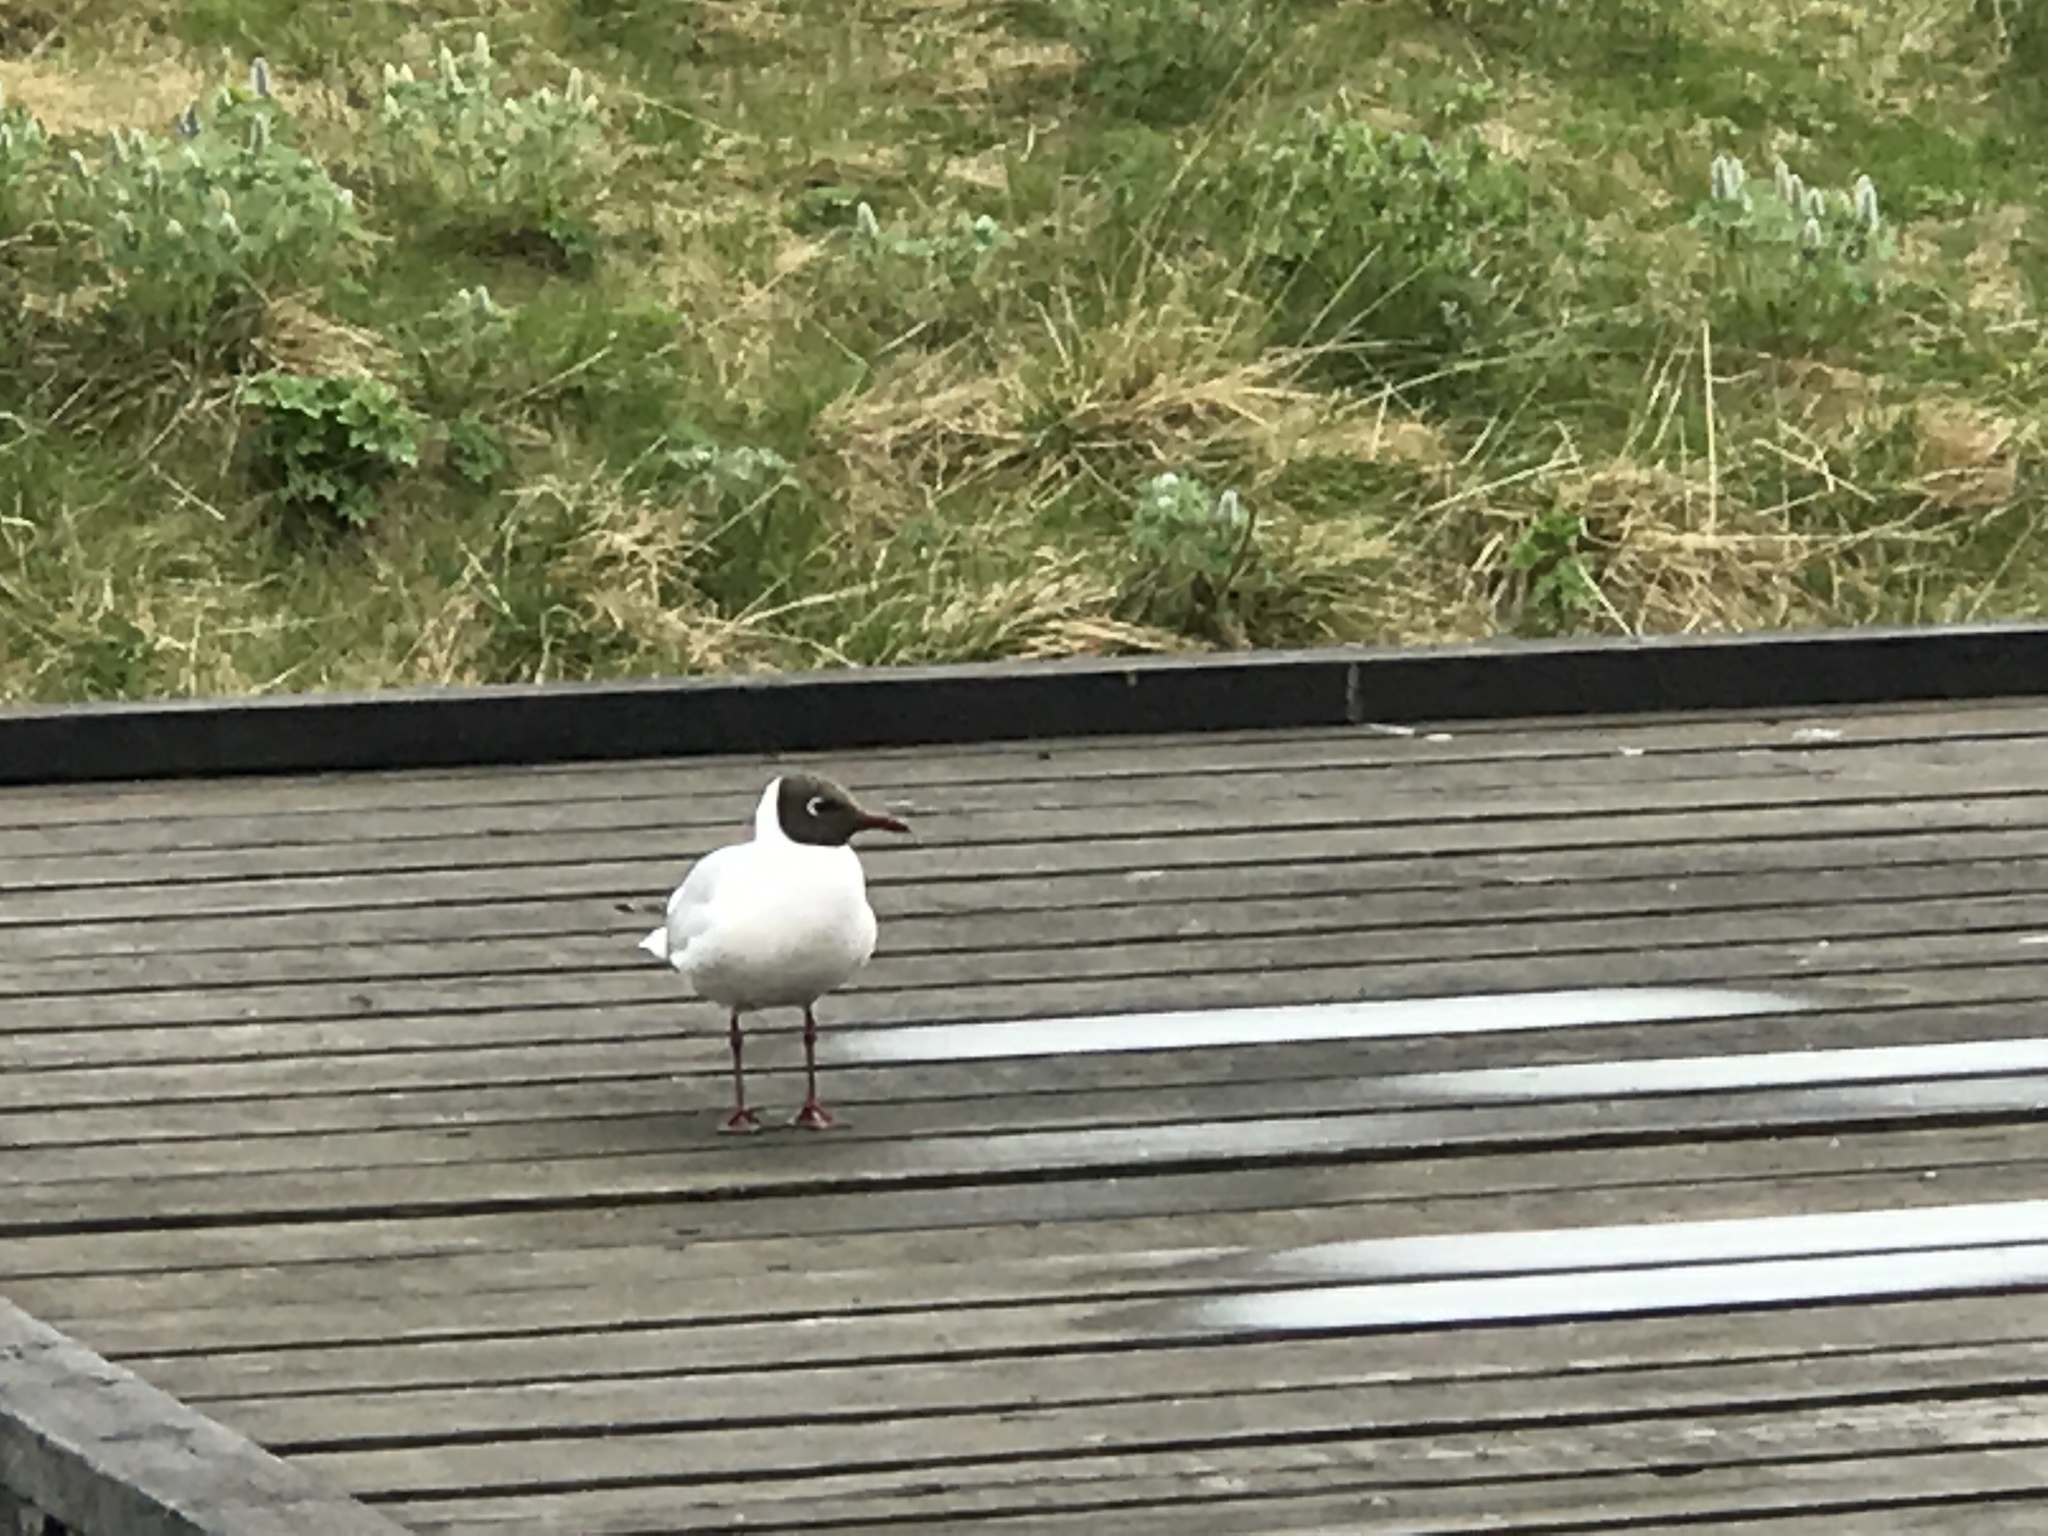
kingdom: Animalia
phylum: Chordata
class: Aves
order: Charadriiformes
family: Laridae
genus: Chroicocephalus
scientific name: Chroicocephalus ridibundus
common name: Black-headed gull
